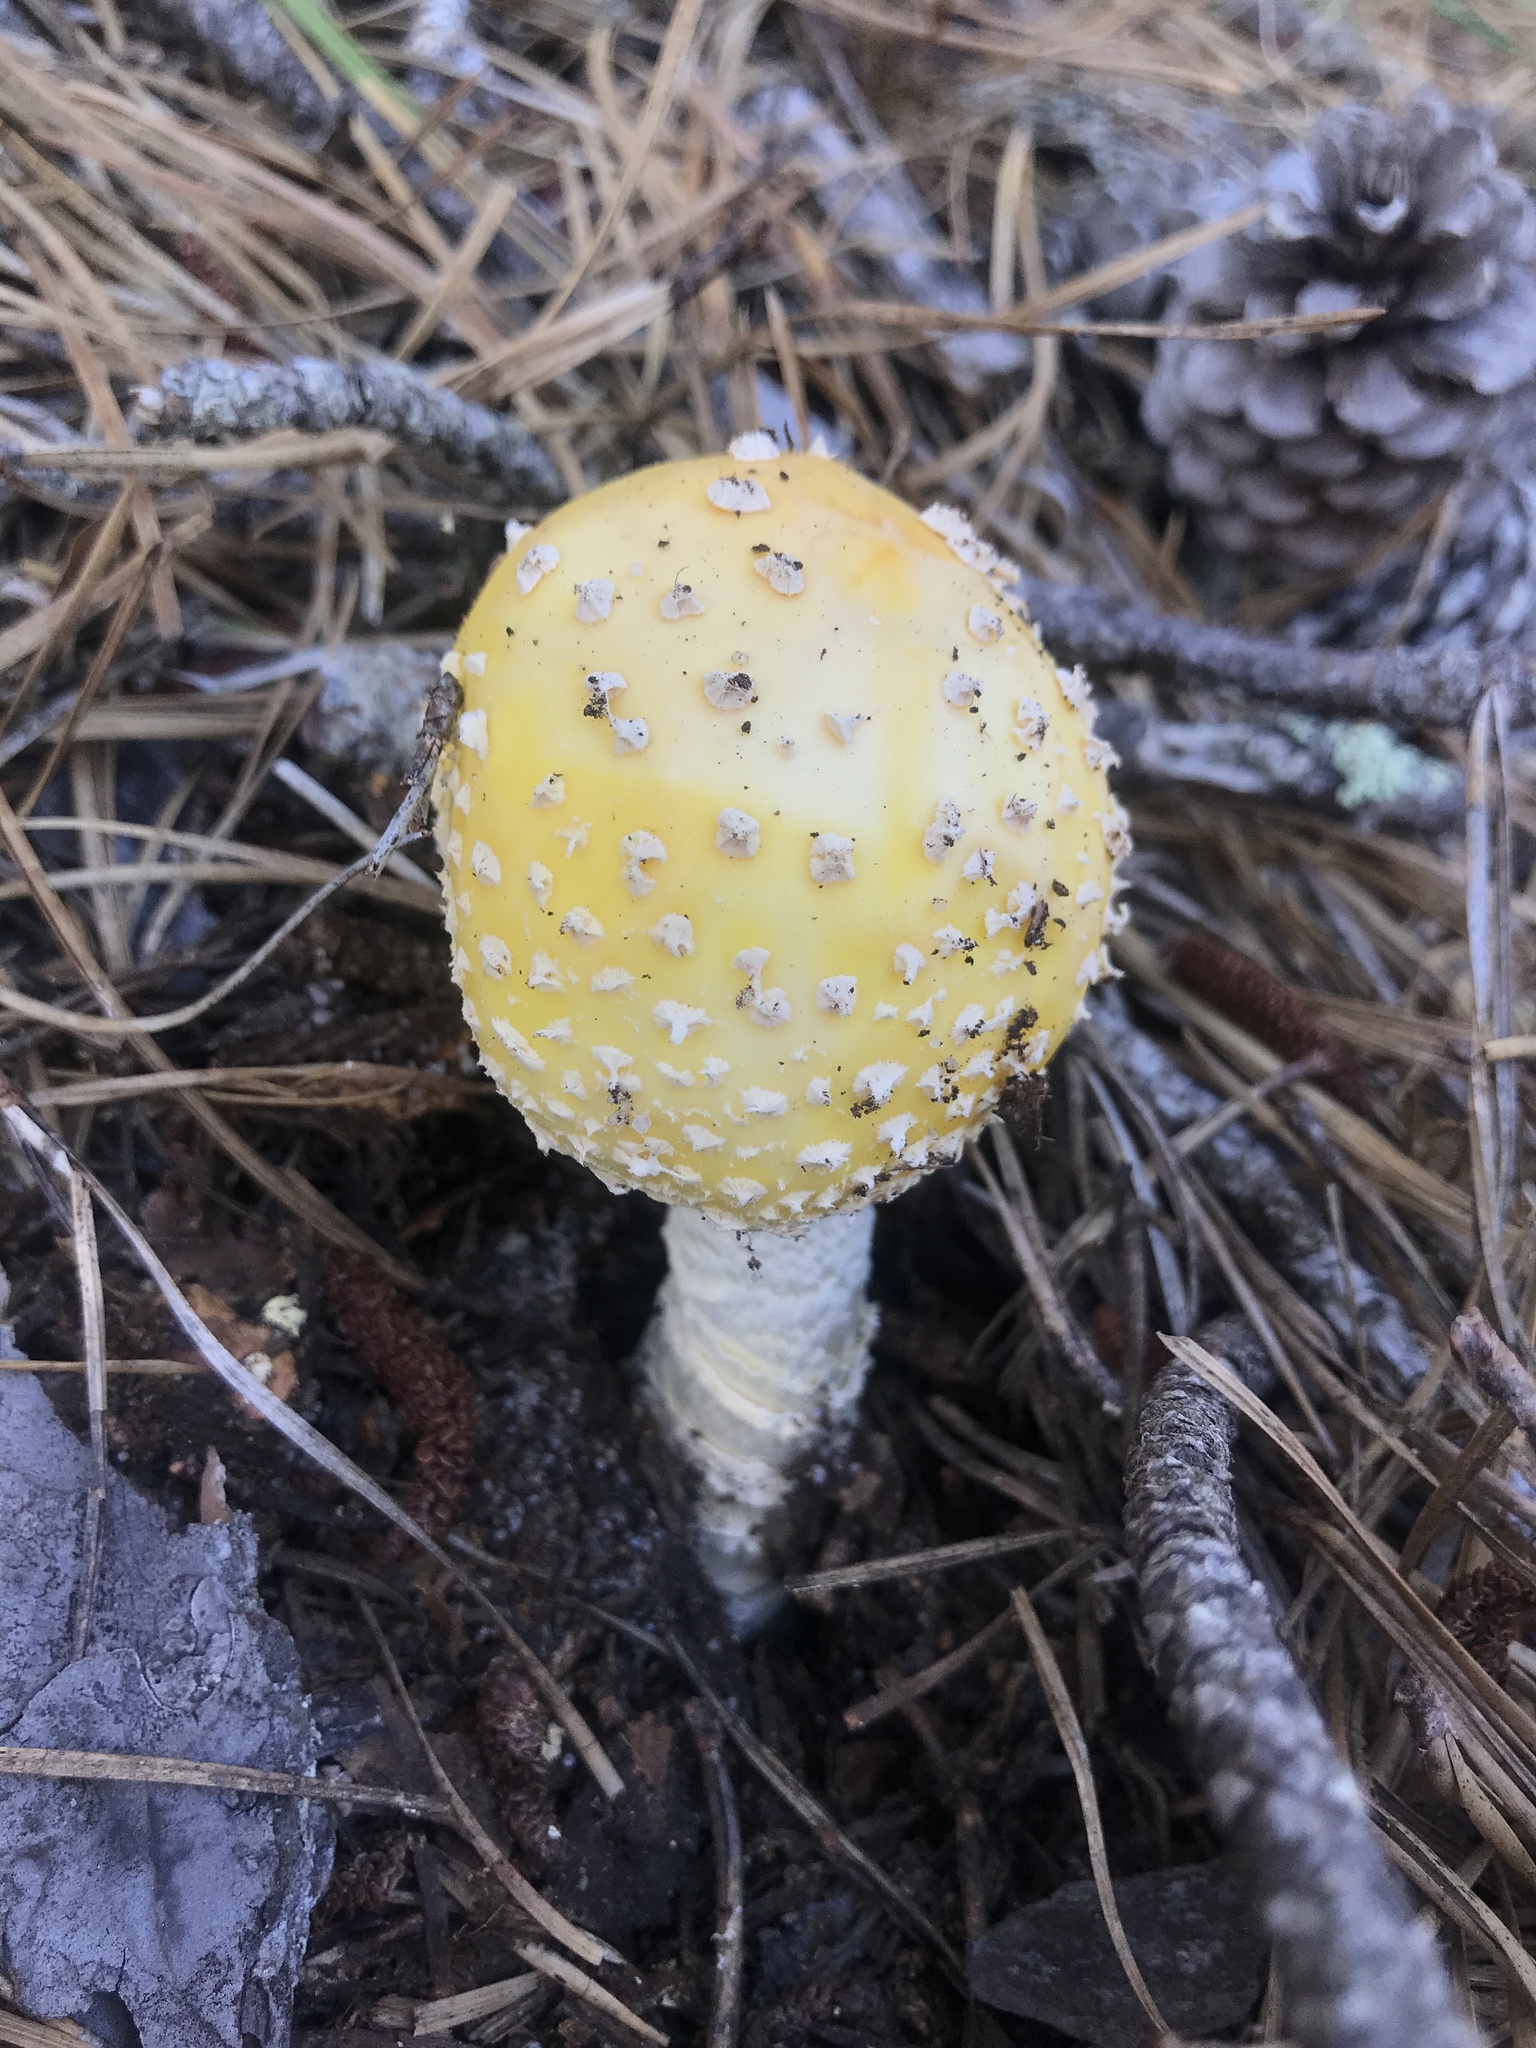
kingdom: Fungi
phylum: Basidiomycota
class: Agaricomycetes
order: Agaricales
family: Amanitaceae
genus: Amanita
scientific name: Amanita muscaria
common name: Fly agaric
